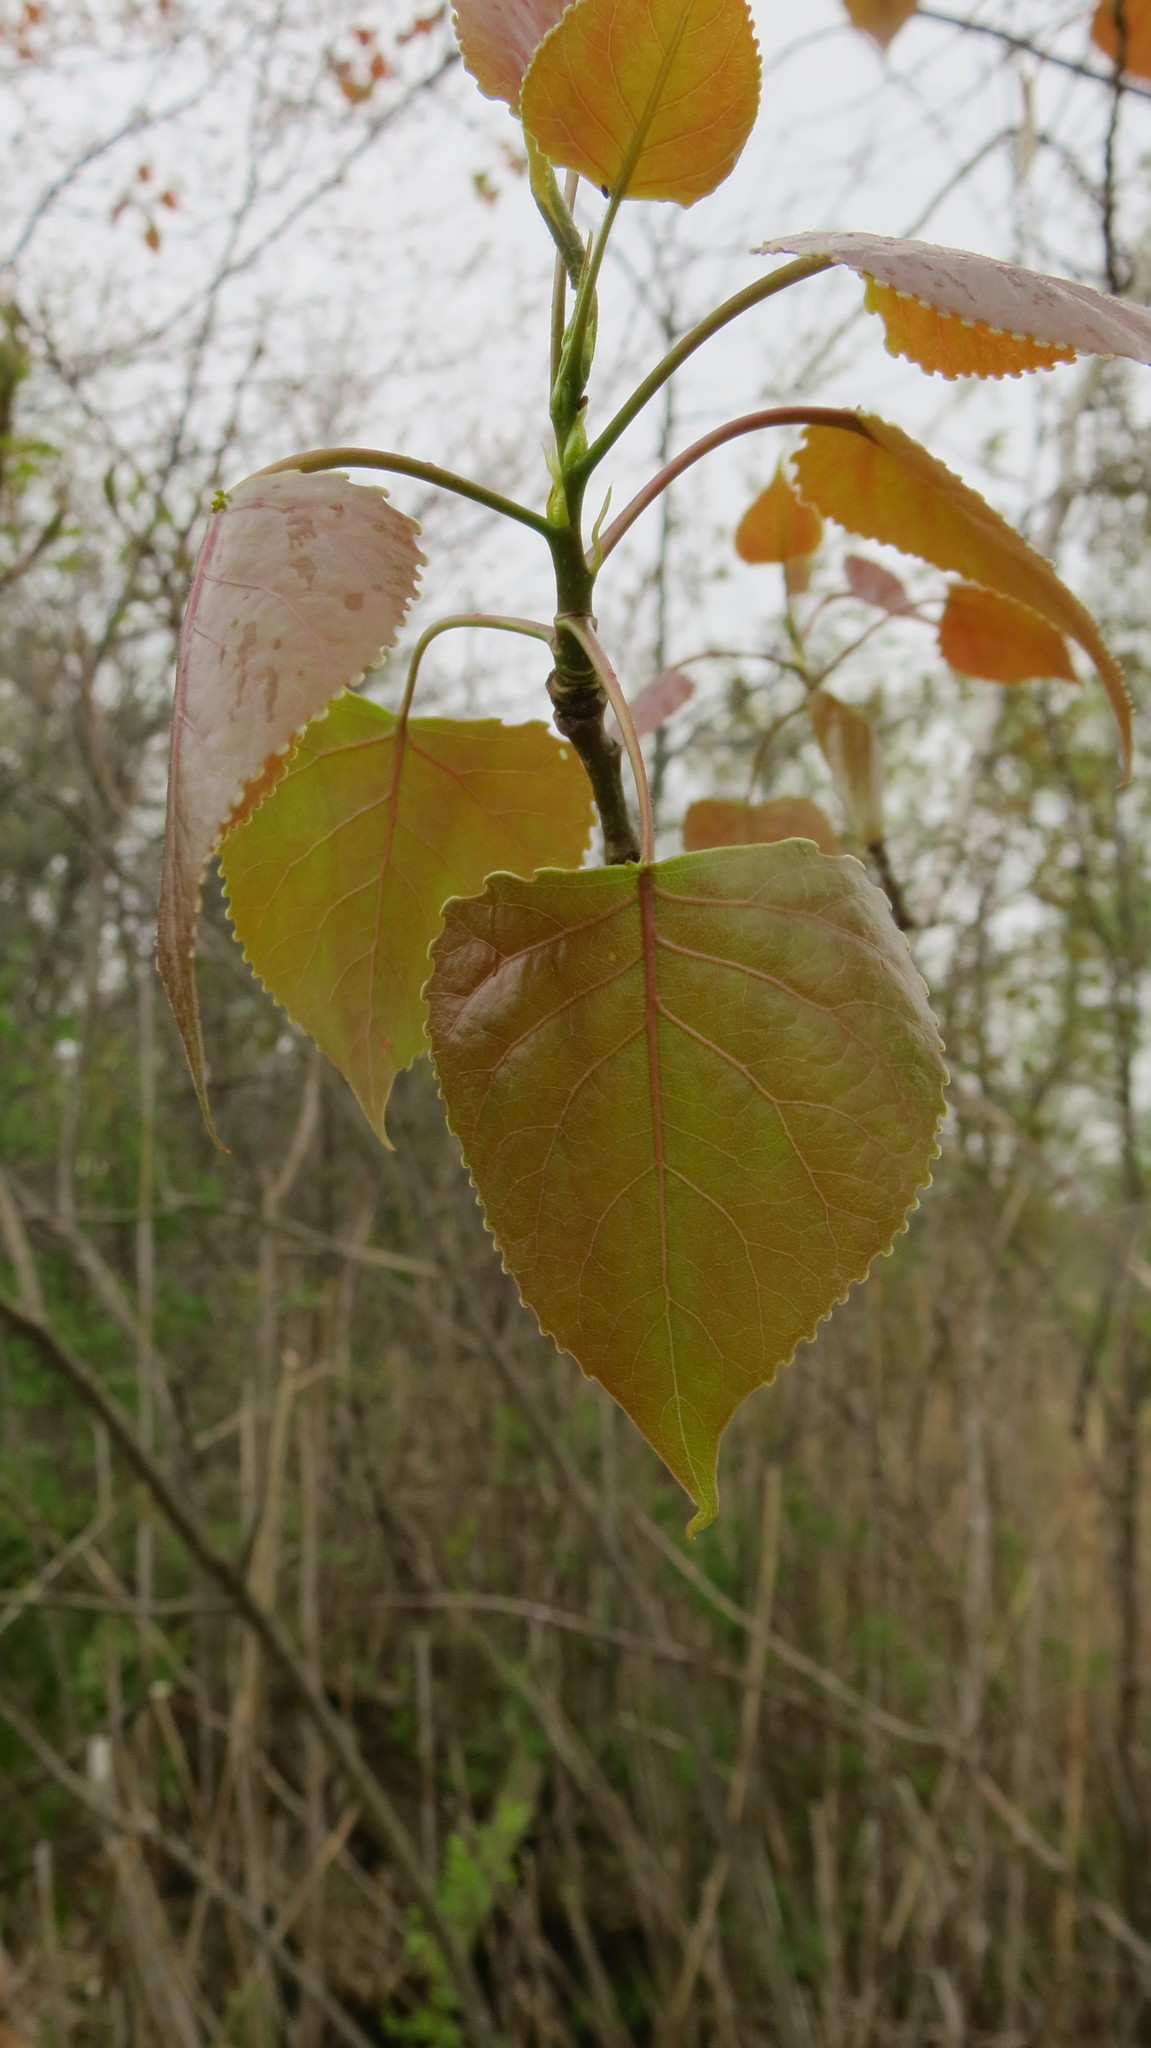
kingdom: Plantae
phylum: Tracheophyta
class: Magnoliopsida
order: Malpighiales
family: Salicaceae
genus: Populus
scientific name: Populus deltoides
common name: Eastern cottonwood
